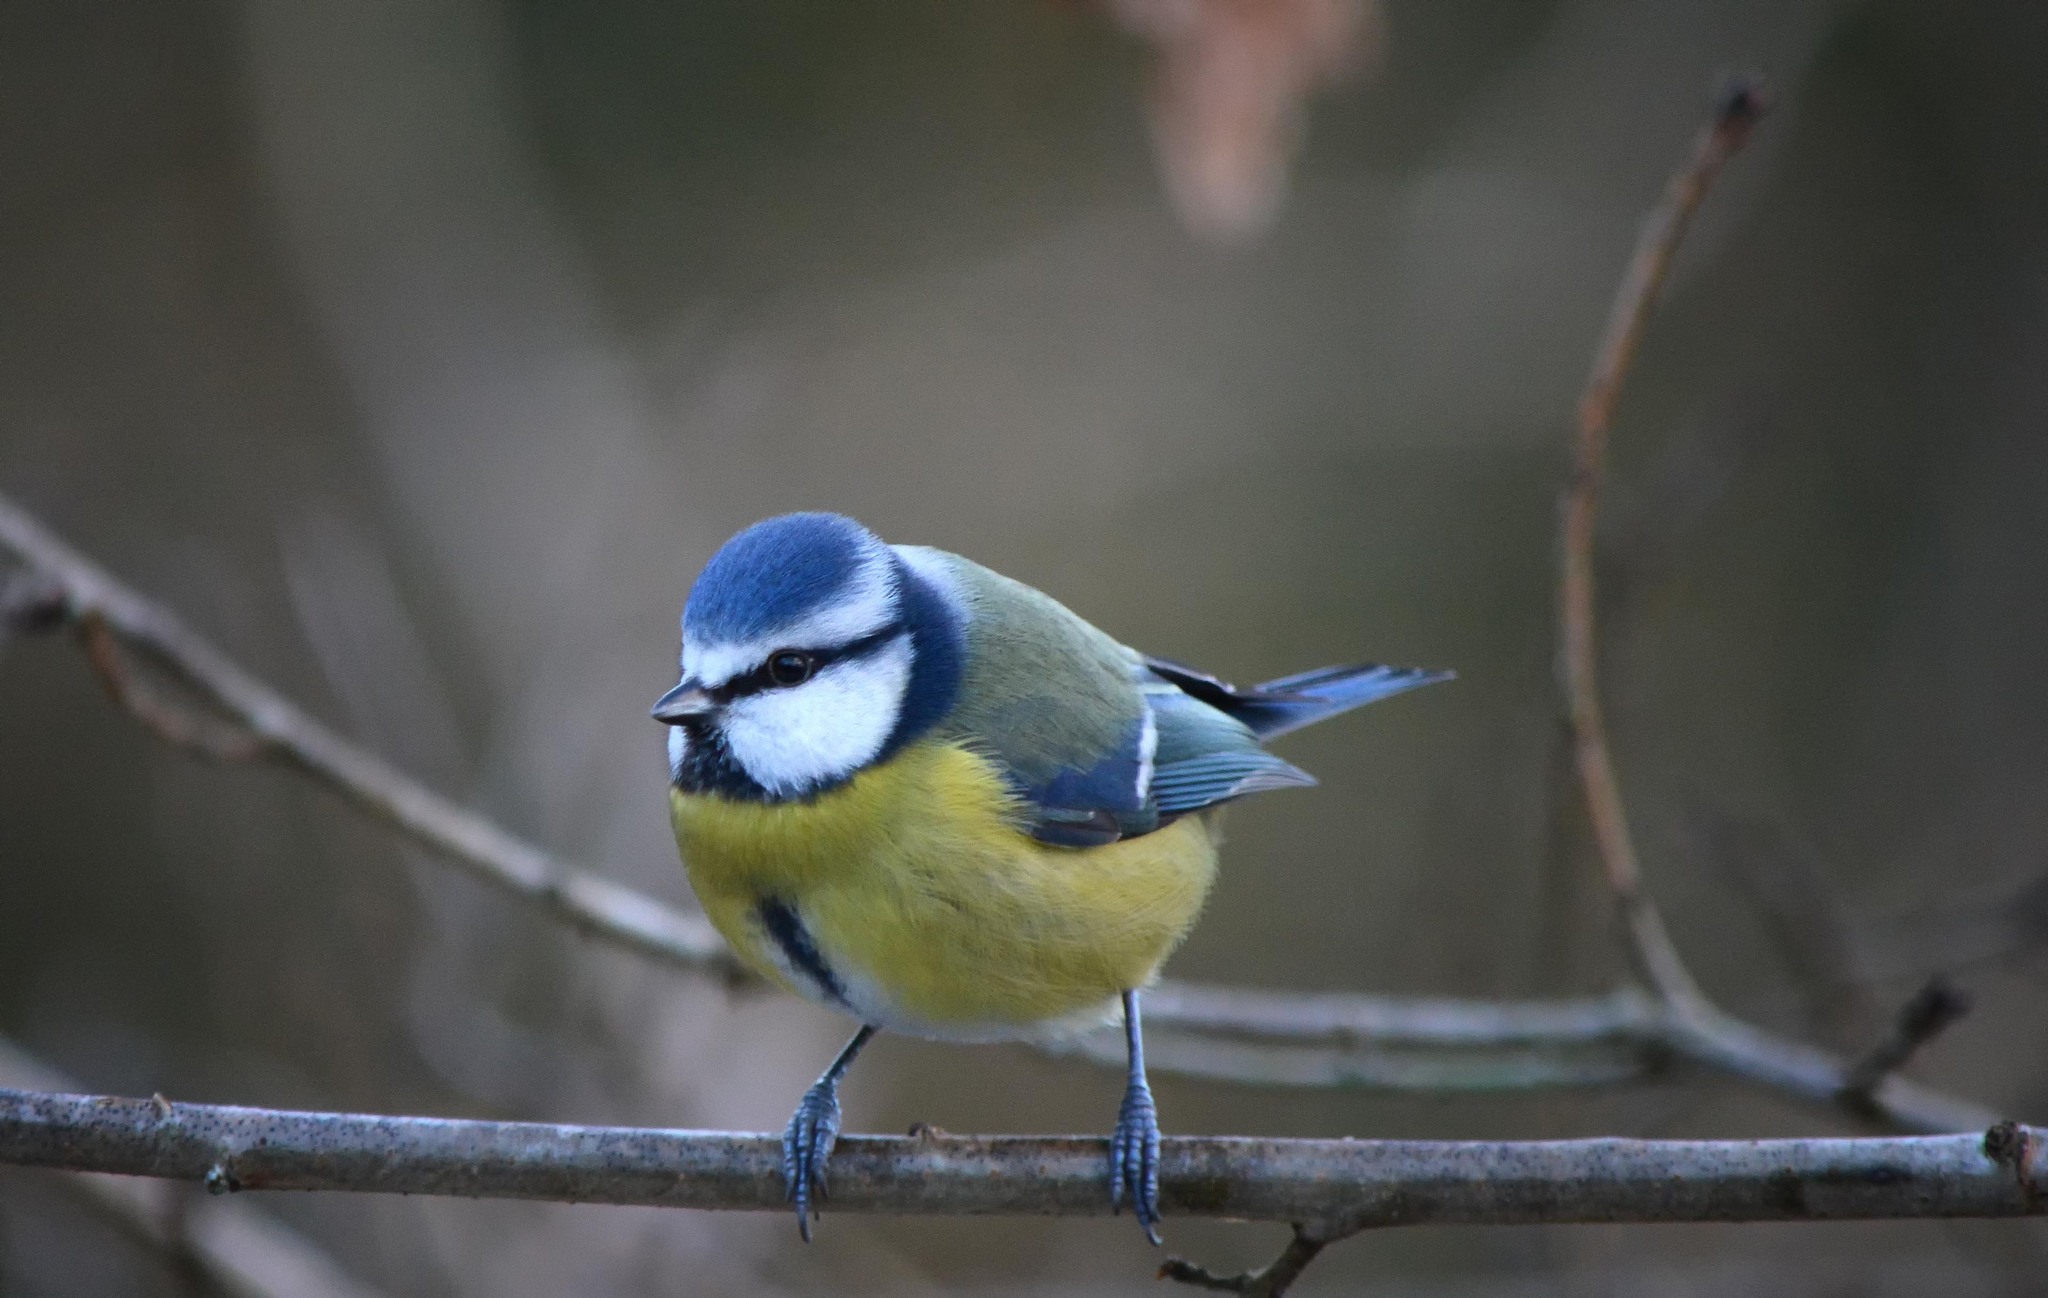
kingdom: Animalia
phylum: Chordata
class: Aves
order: Passeriformes
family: Paridae
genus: Cyanistes
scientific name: Cyanistes caeruleus
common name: Eurasian blue tit
